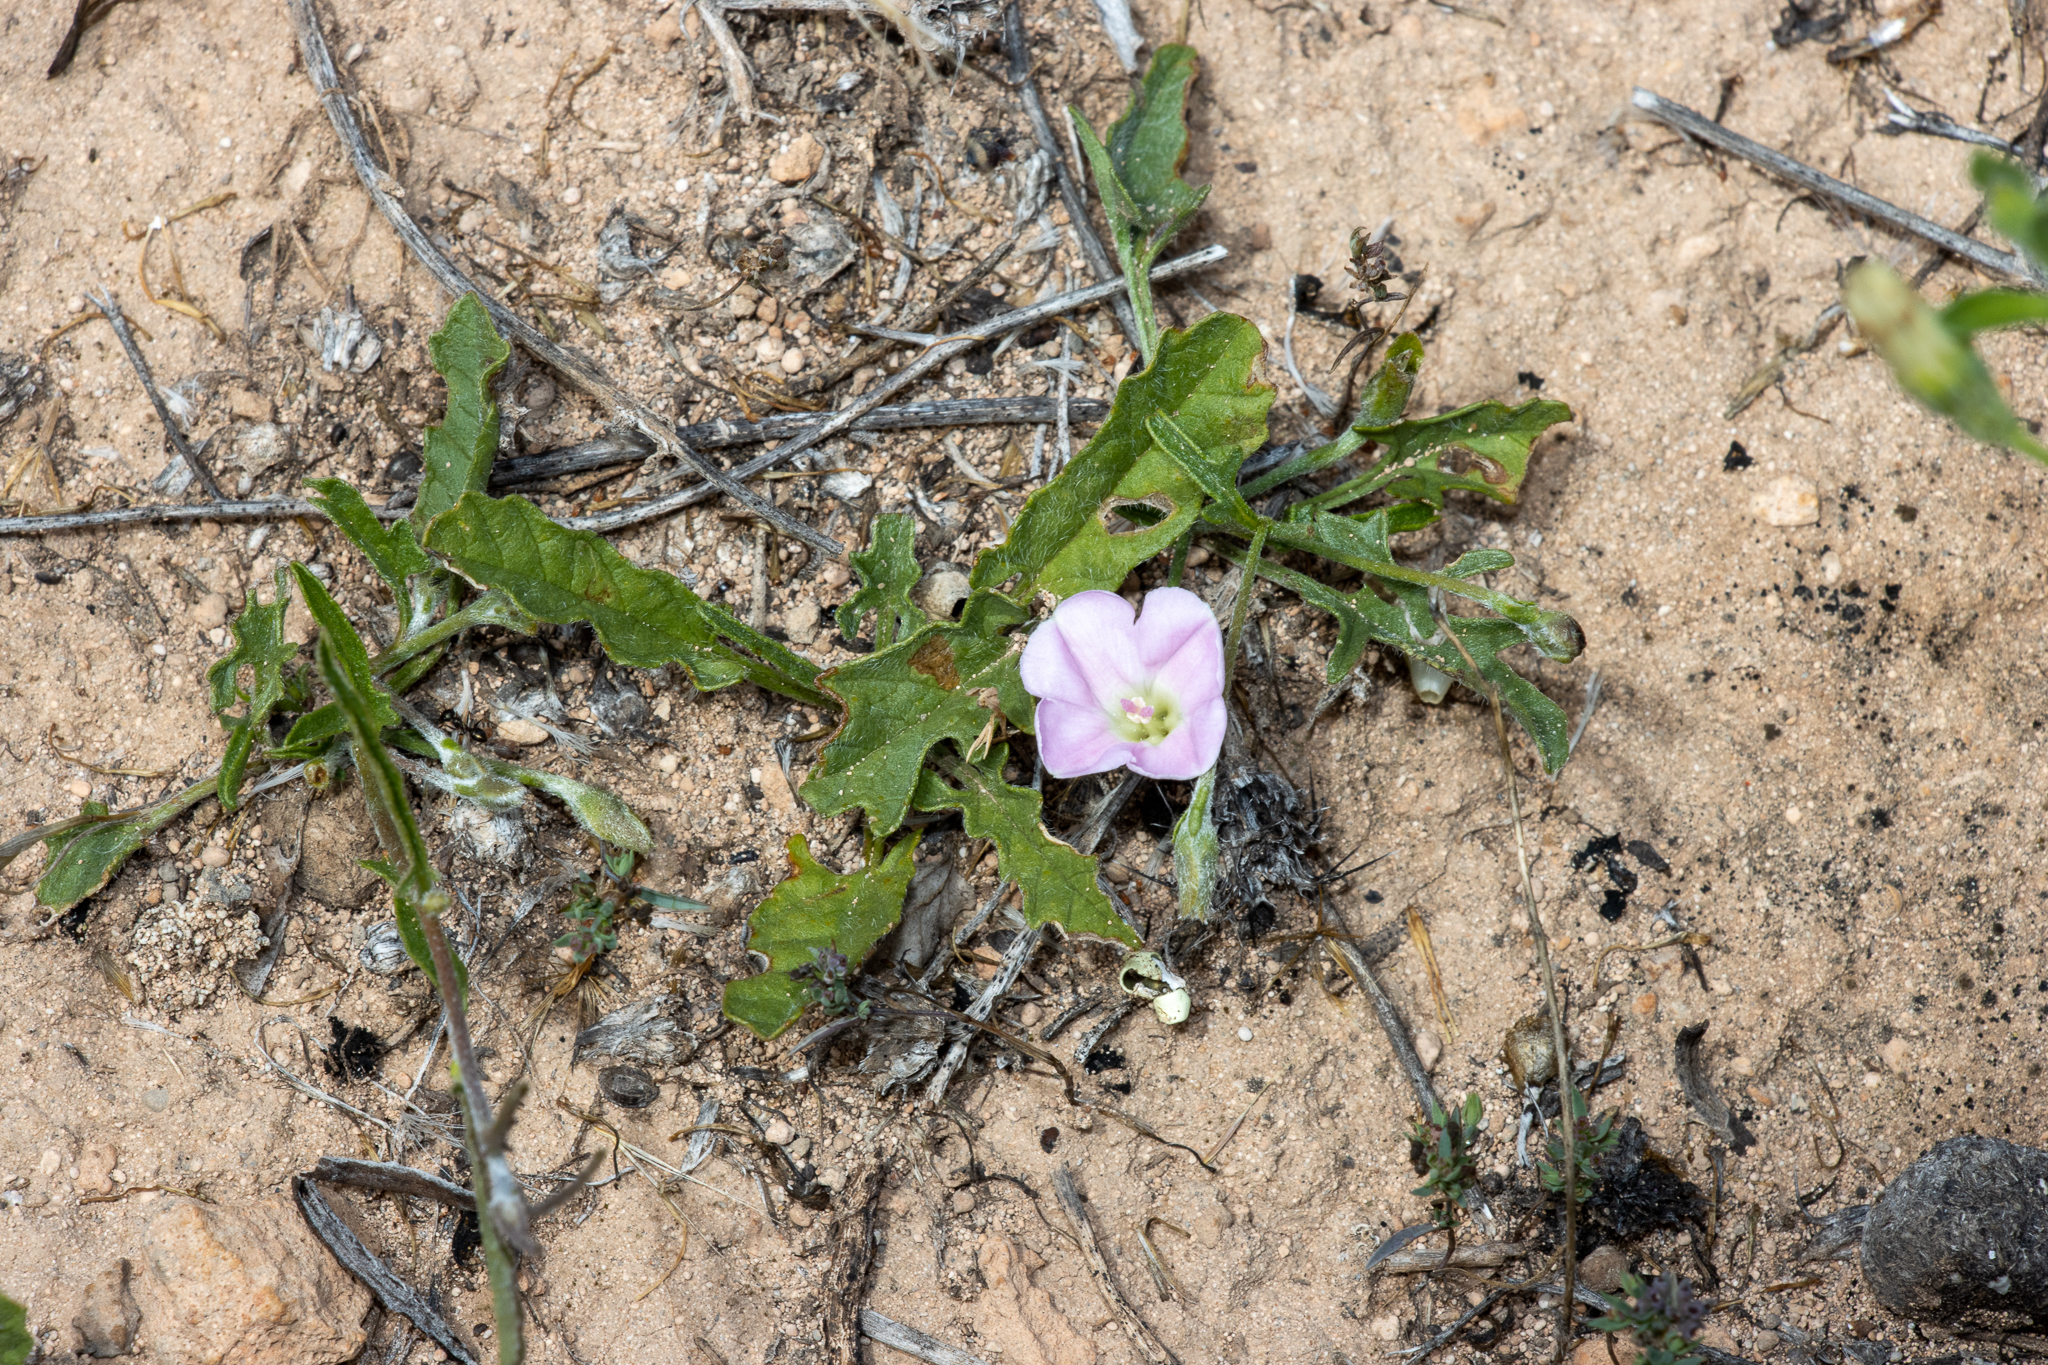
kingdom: Plantae
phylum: Tracheophyta
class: Magnoliopsida
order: Solanales
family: Convolvulaceae
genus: Convolvulus
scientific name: Convolvulus angustissimus
